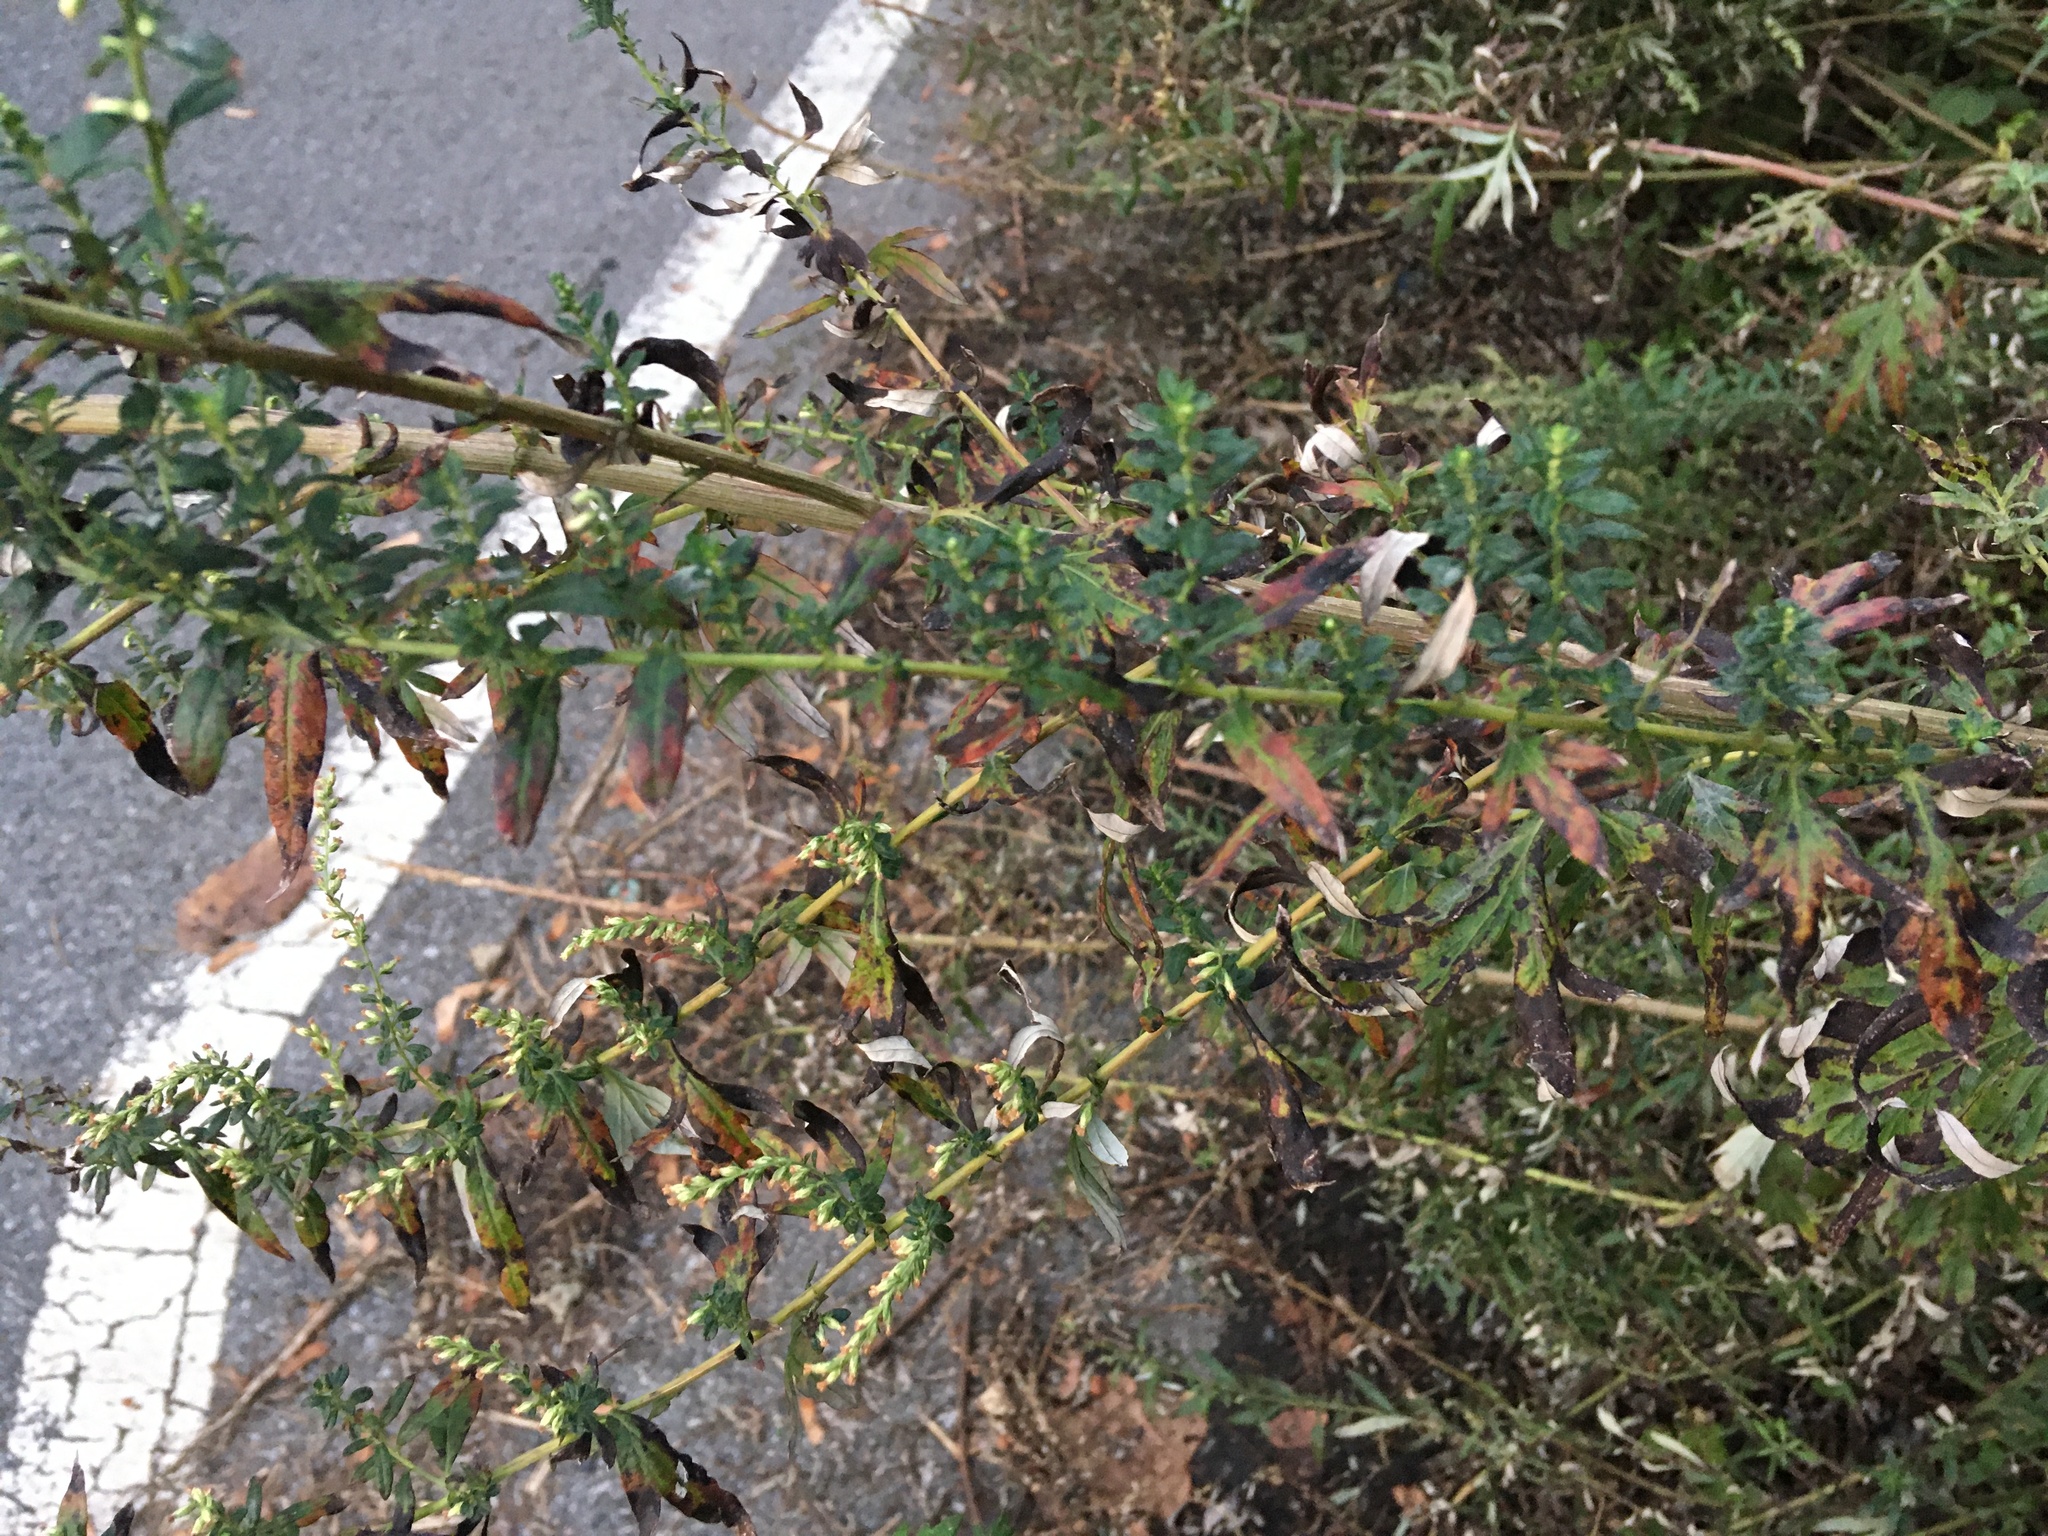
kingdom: Plantae
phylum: Tracheophyta
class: Magnoliopsida
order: Asterales
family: Asteraceae
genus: Artemisia
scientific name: Artemisia vulgaris
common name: Mugwort
